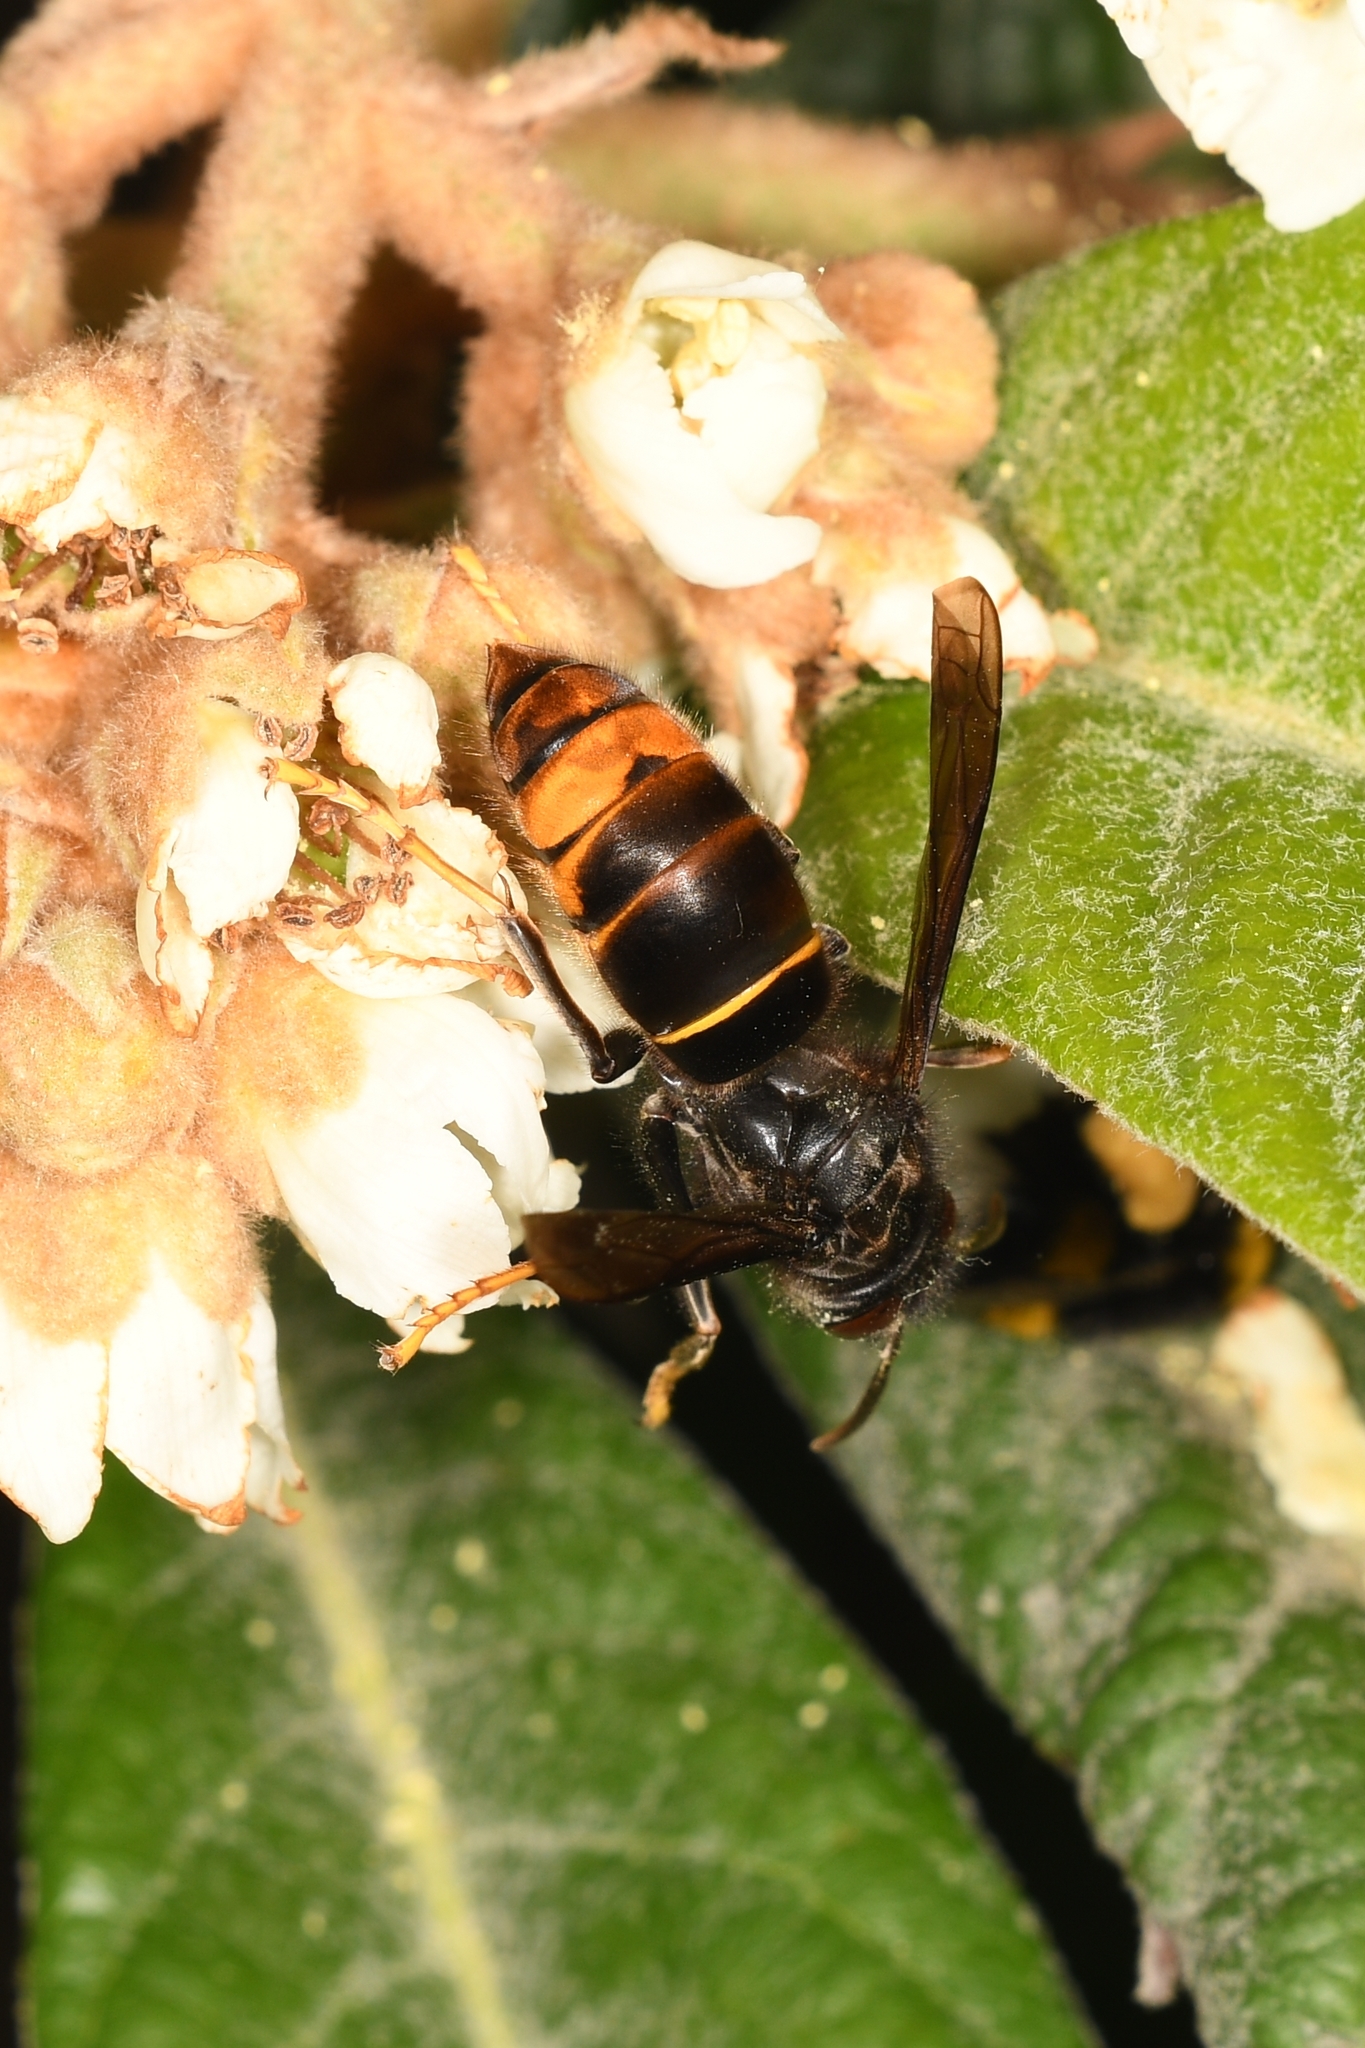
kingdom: Animalia
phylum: Arthropoda
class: Insecta
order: Hymenoptera
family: Vespidae
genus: Vespa
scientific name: Vespa velutina
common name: Asian hornet
